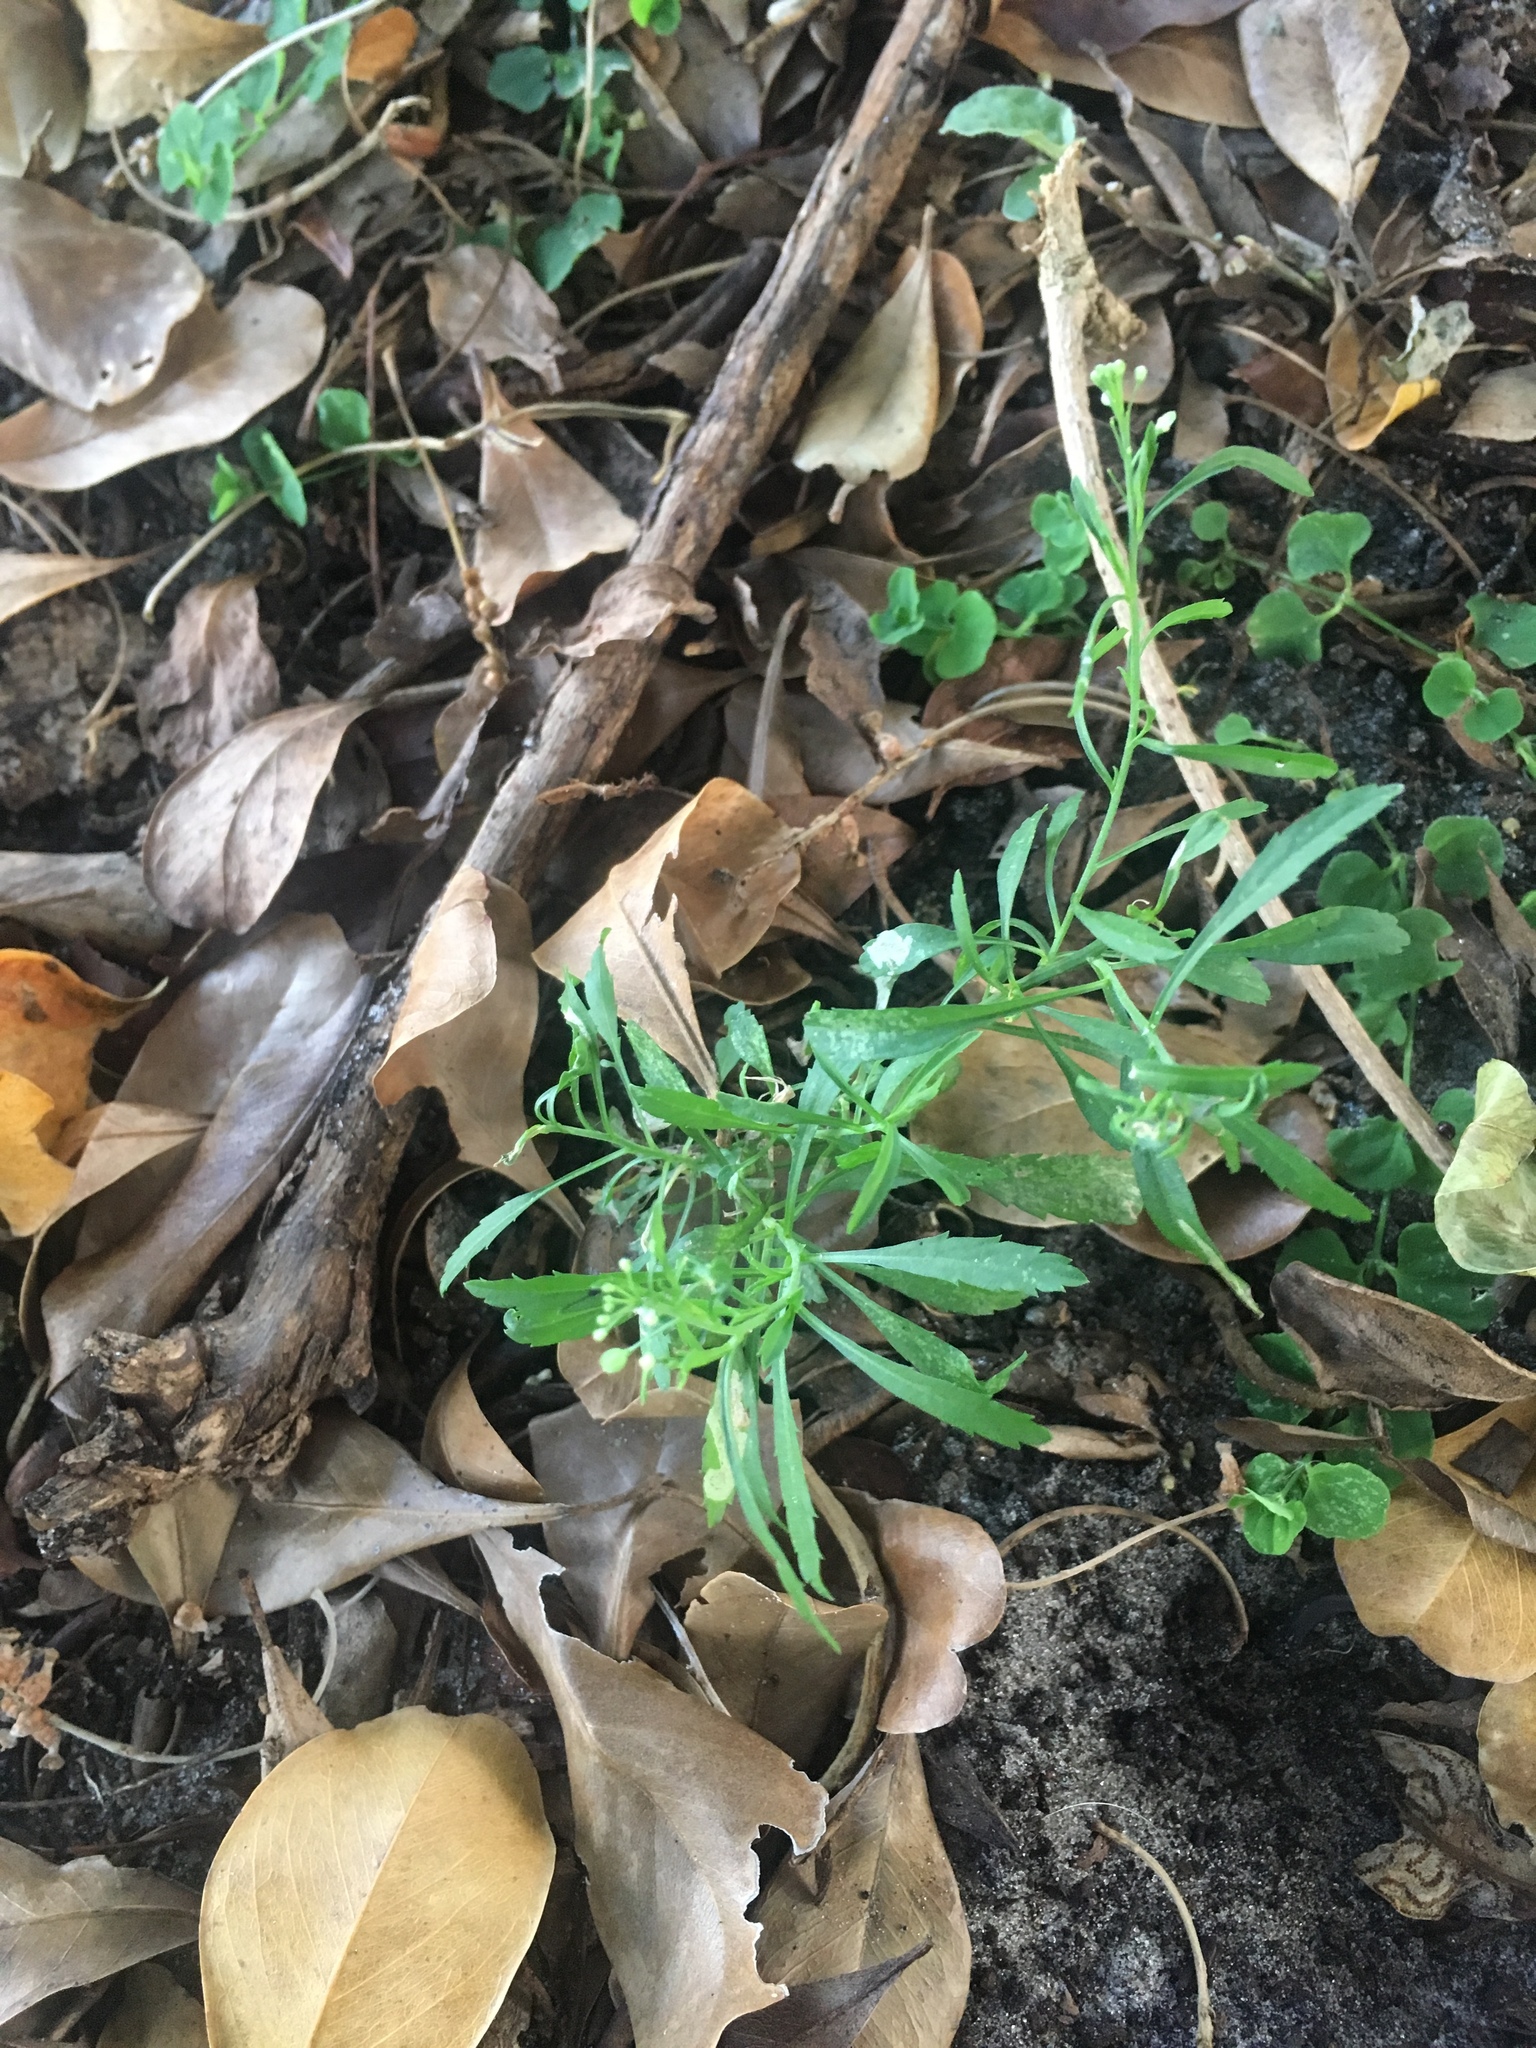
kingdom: Plantae
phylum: Tracheophyta
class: Magnoliopsida
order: Brassicales
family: Brassicaceae
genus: Lepidium
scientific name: Lepidium virginicum
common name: Least pepperwort
